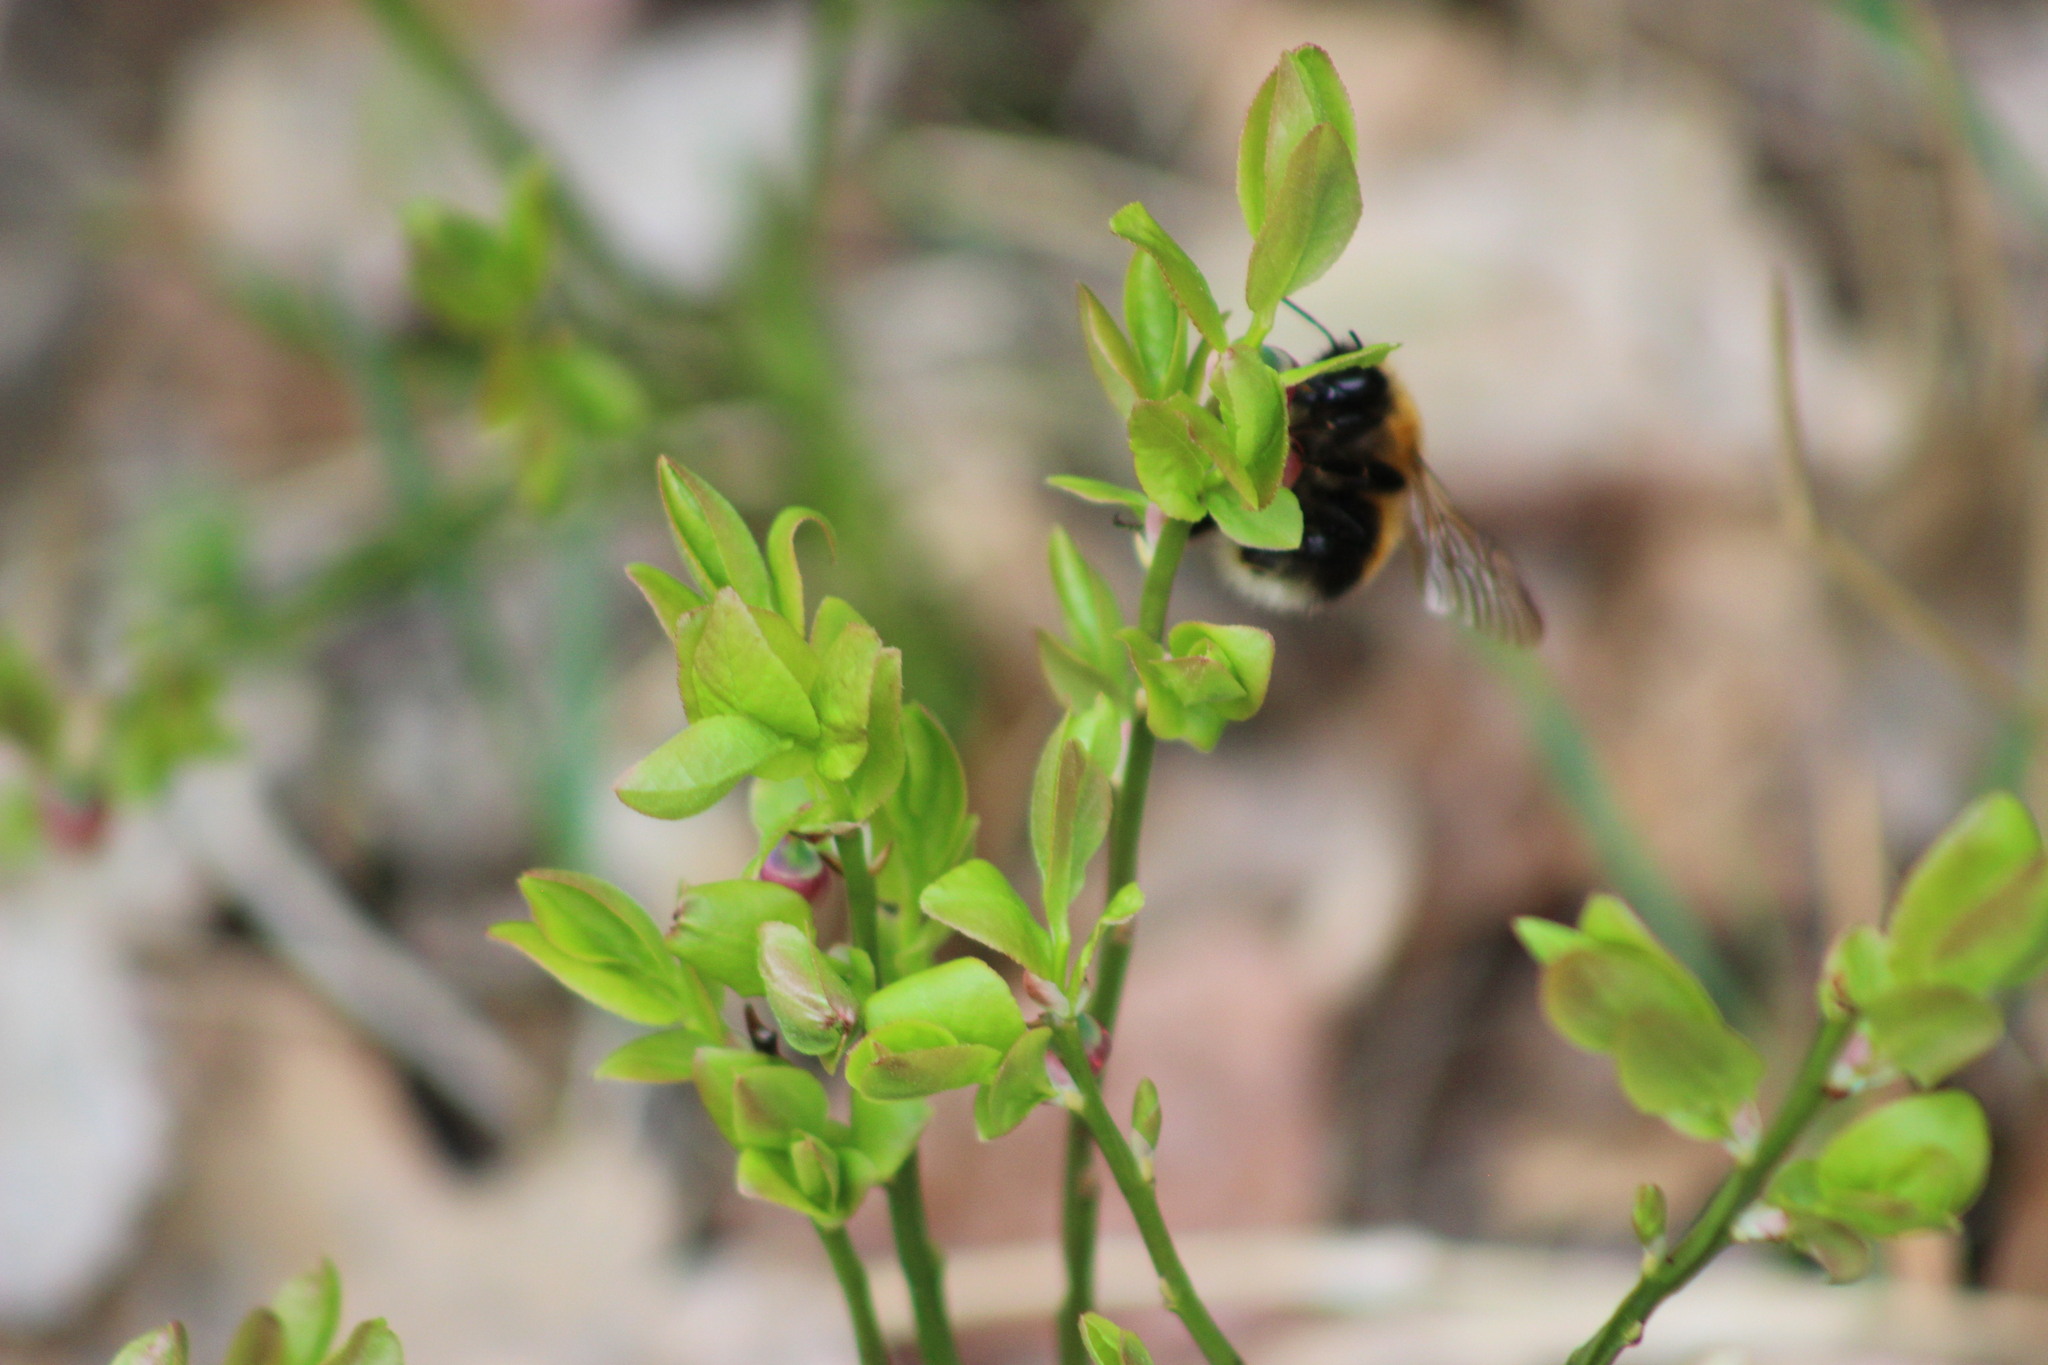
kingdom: Animalia
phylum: Arthropoda
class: Insecta
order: Hymenoptera
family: Apidae
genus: Bombus
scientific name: Bombus hypnorum
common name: New garden bumblebee
